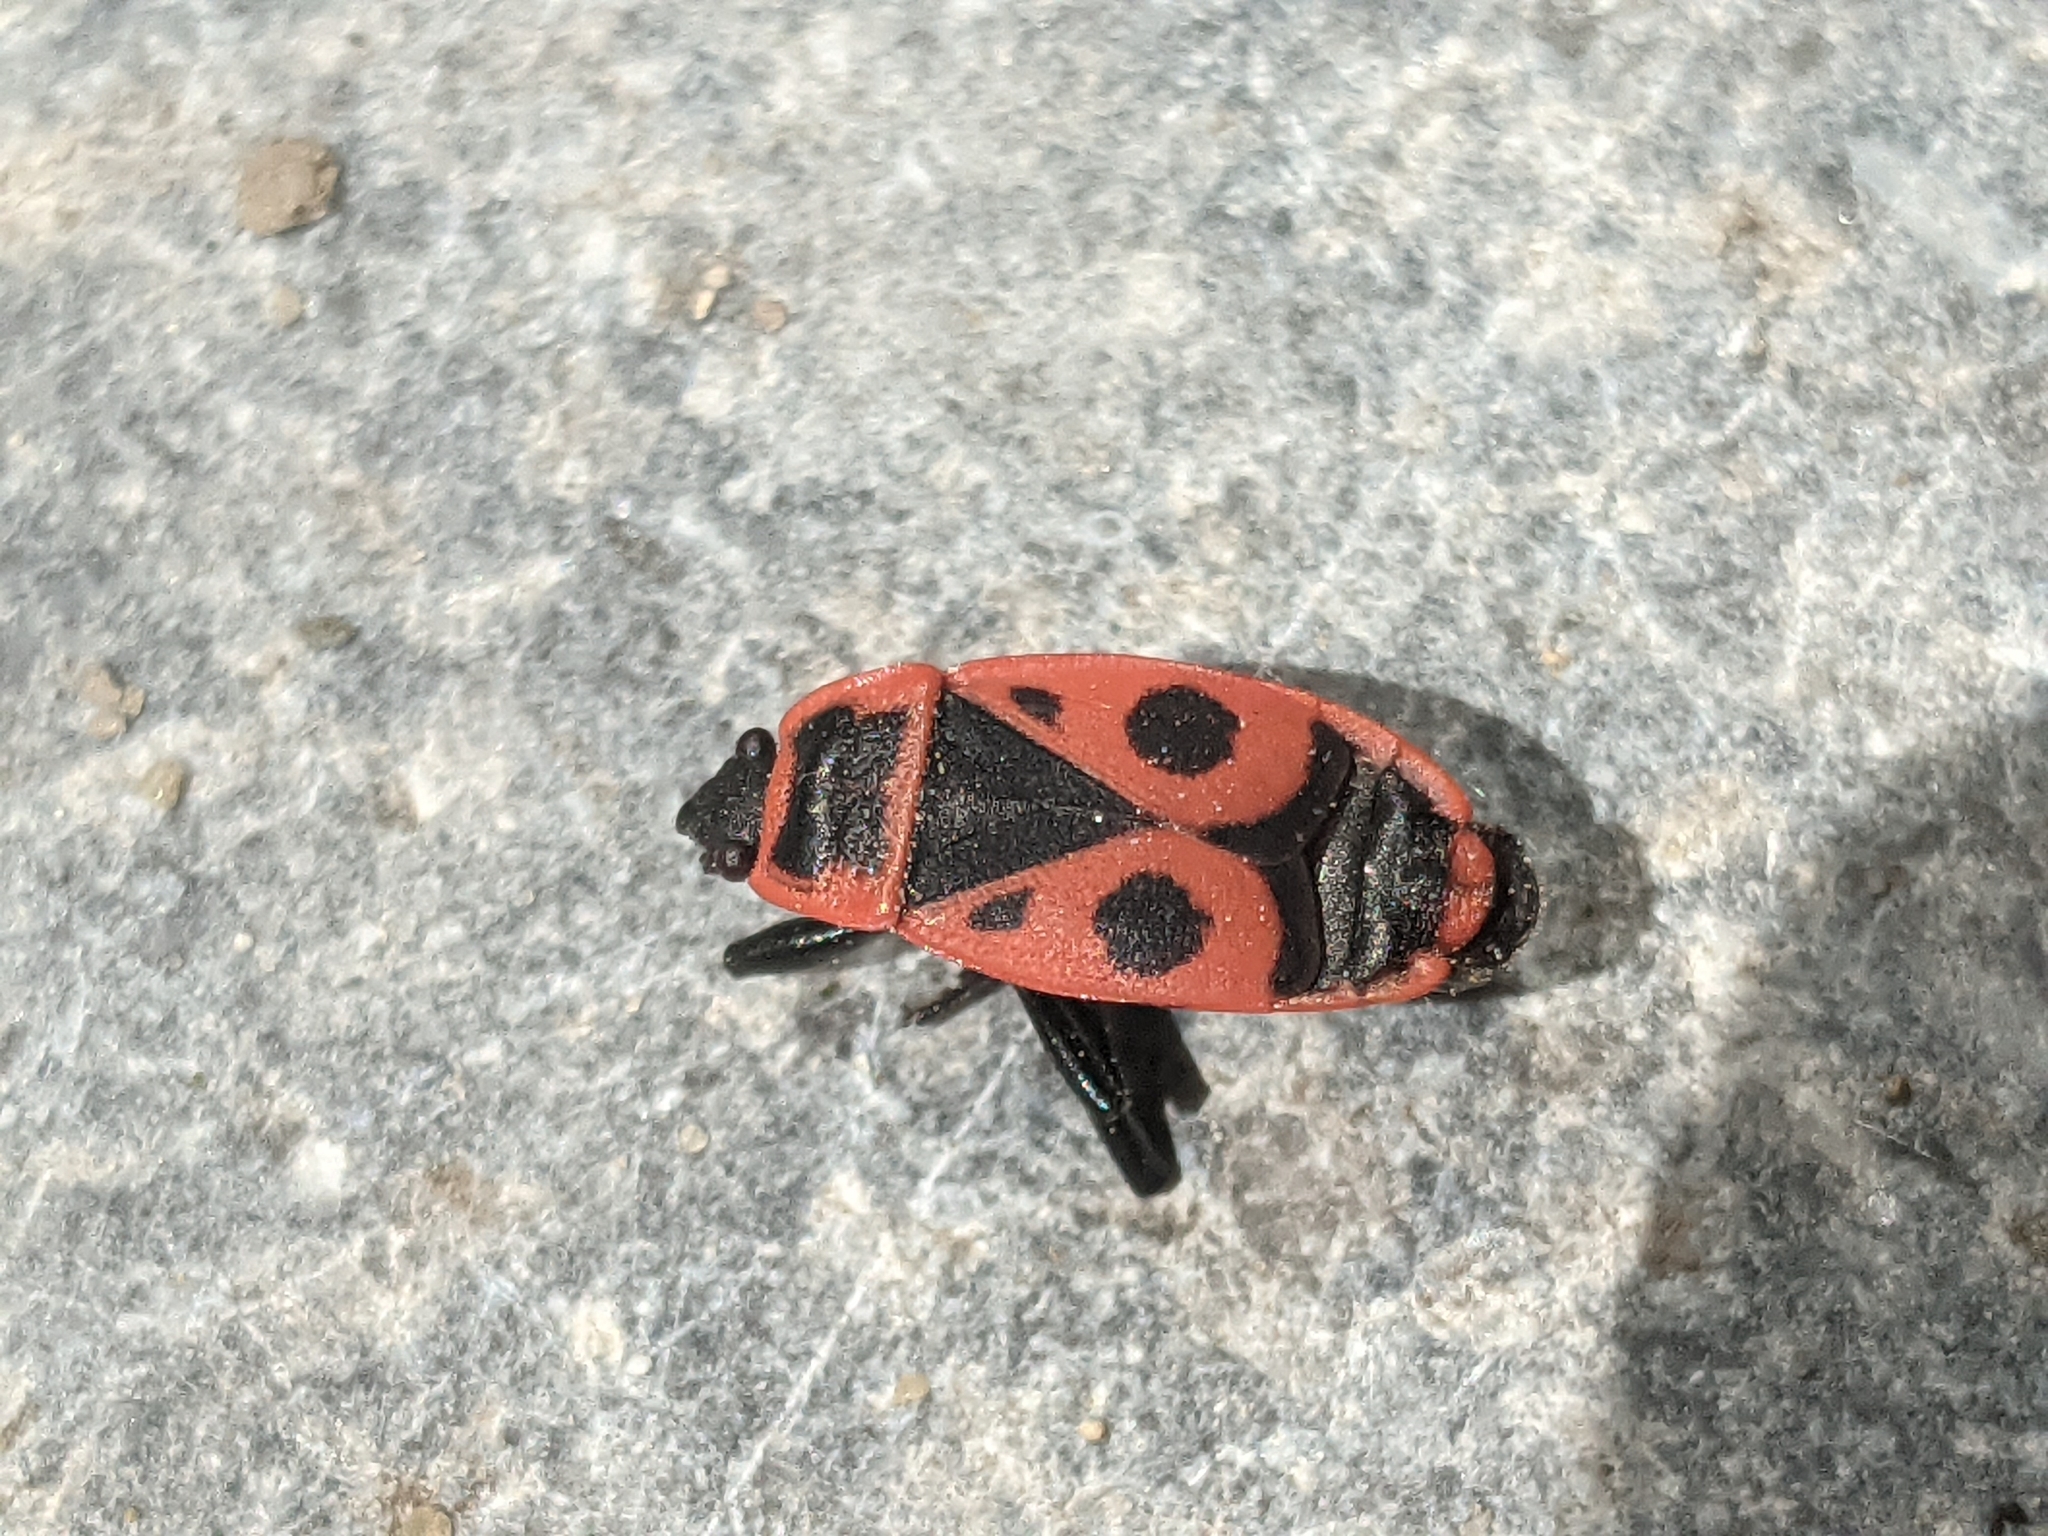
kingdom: Animalia
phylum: Arthropoda
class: Insecta
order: Hemiptera
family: Pyrrhocoridae
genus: Pyrrhocoris
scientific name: Pyrrhocoris apterus
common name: Firebug
